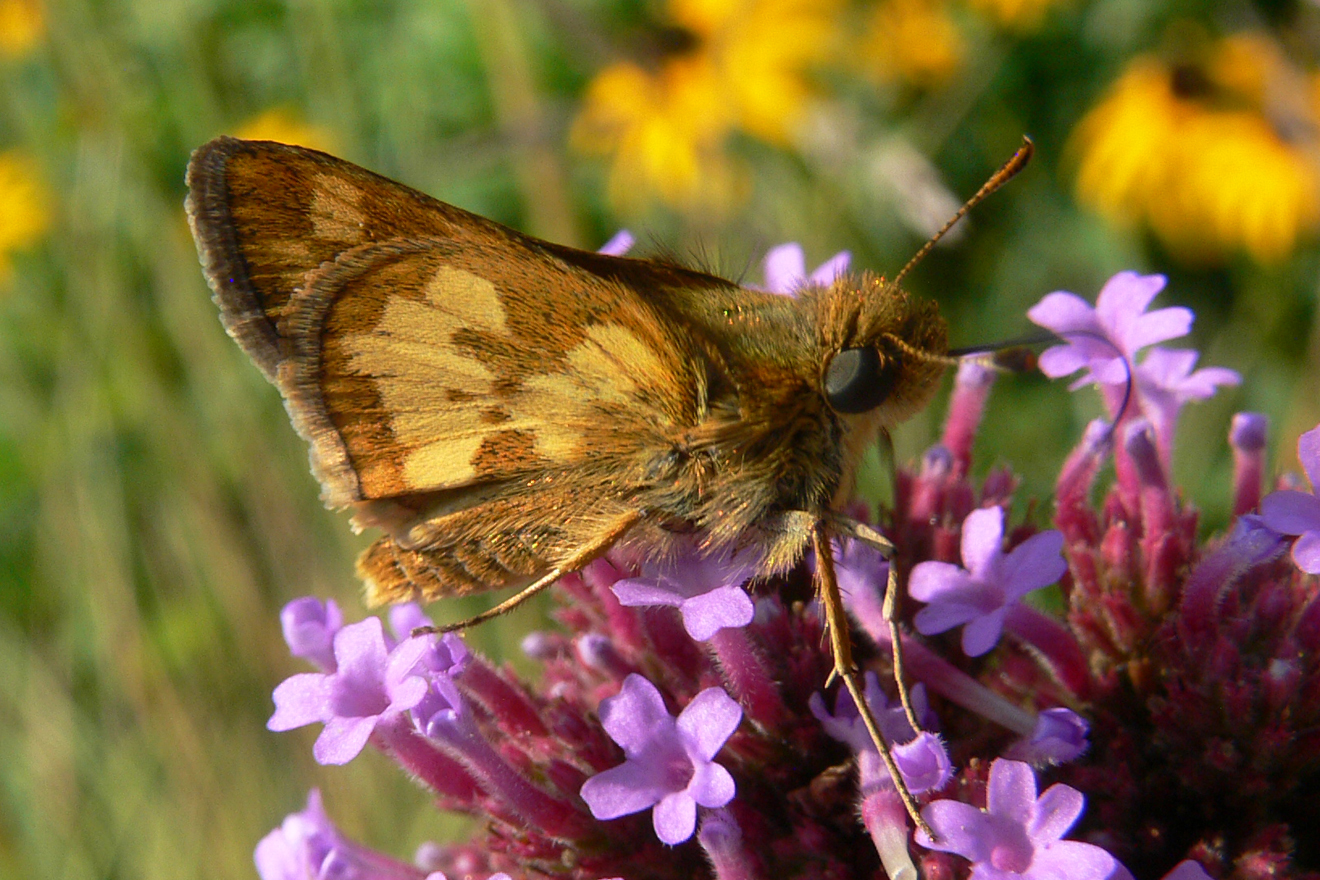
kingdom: Animalia
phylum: Arthropoda
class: Insecta
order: Lepidoptera
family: Hesperiidae
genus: Polites
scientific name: Polites coras
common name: Peck's skipper
